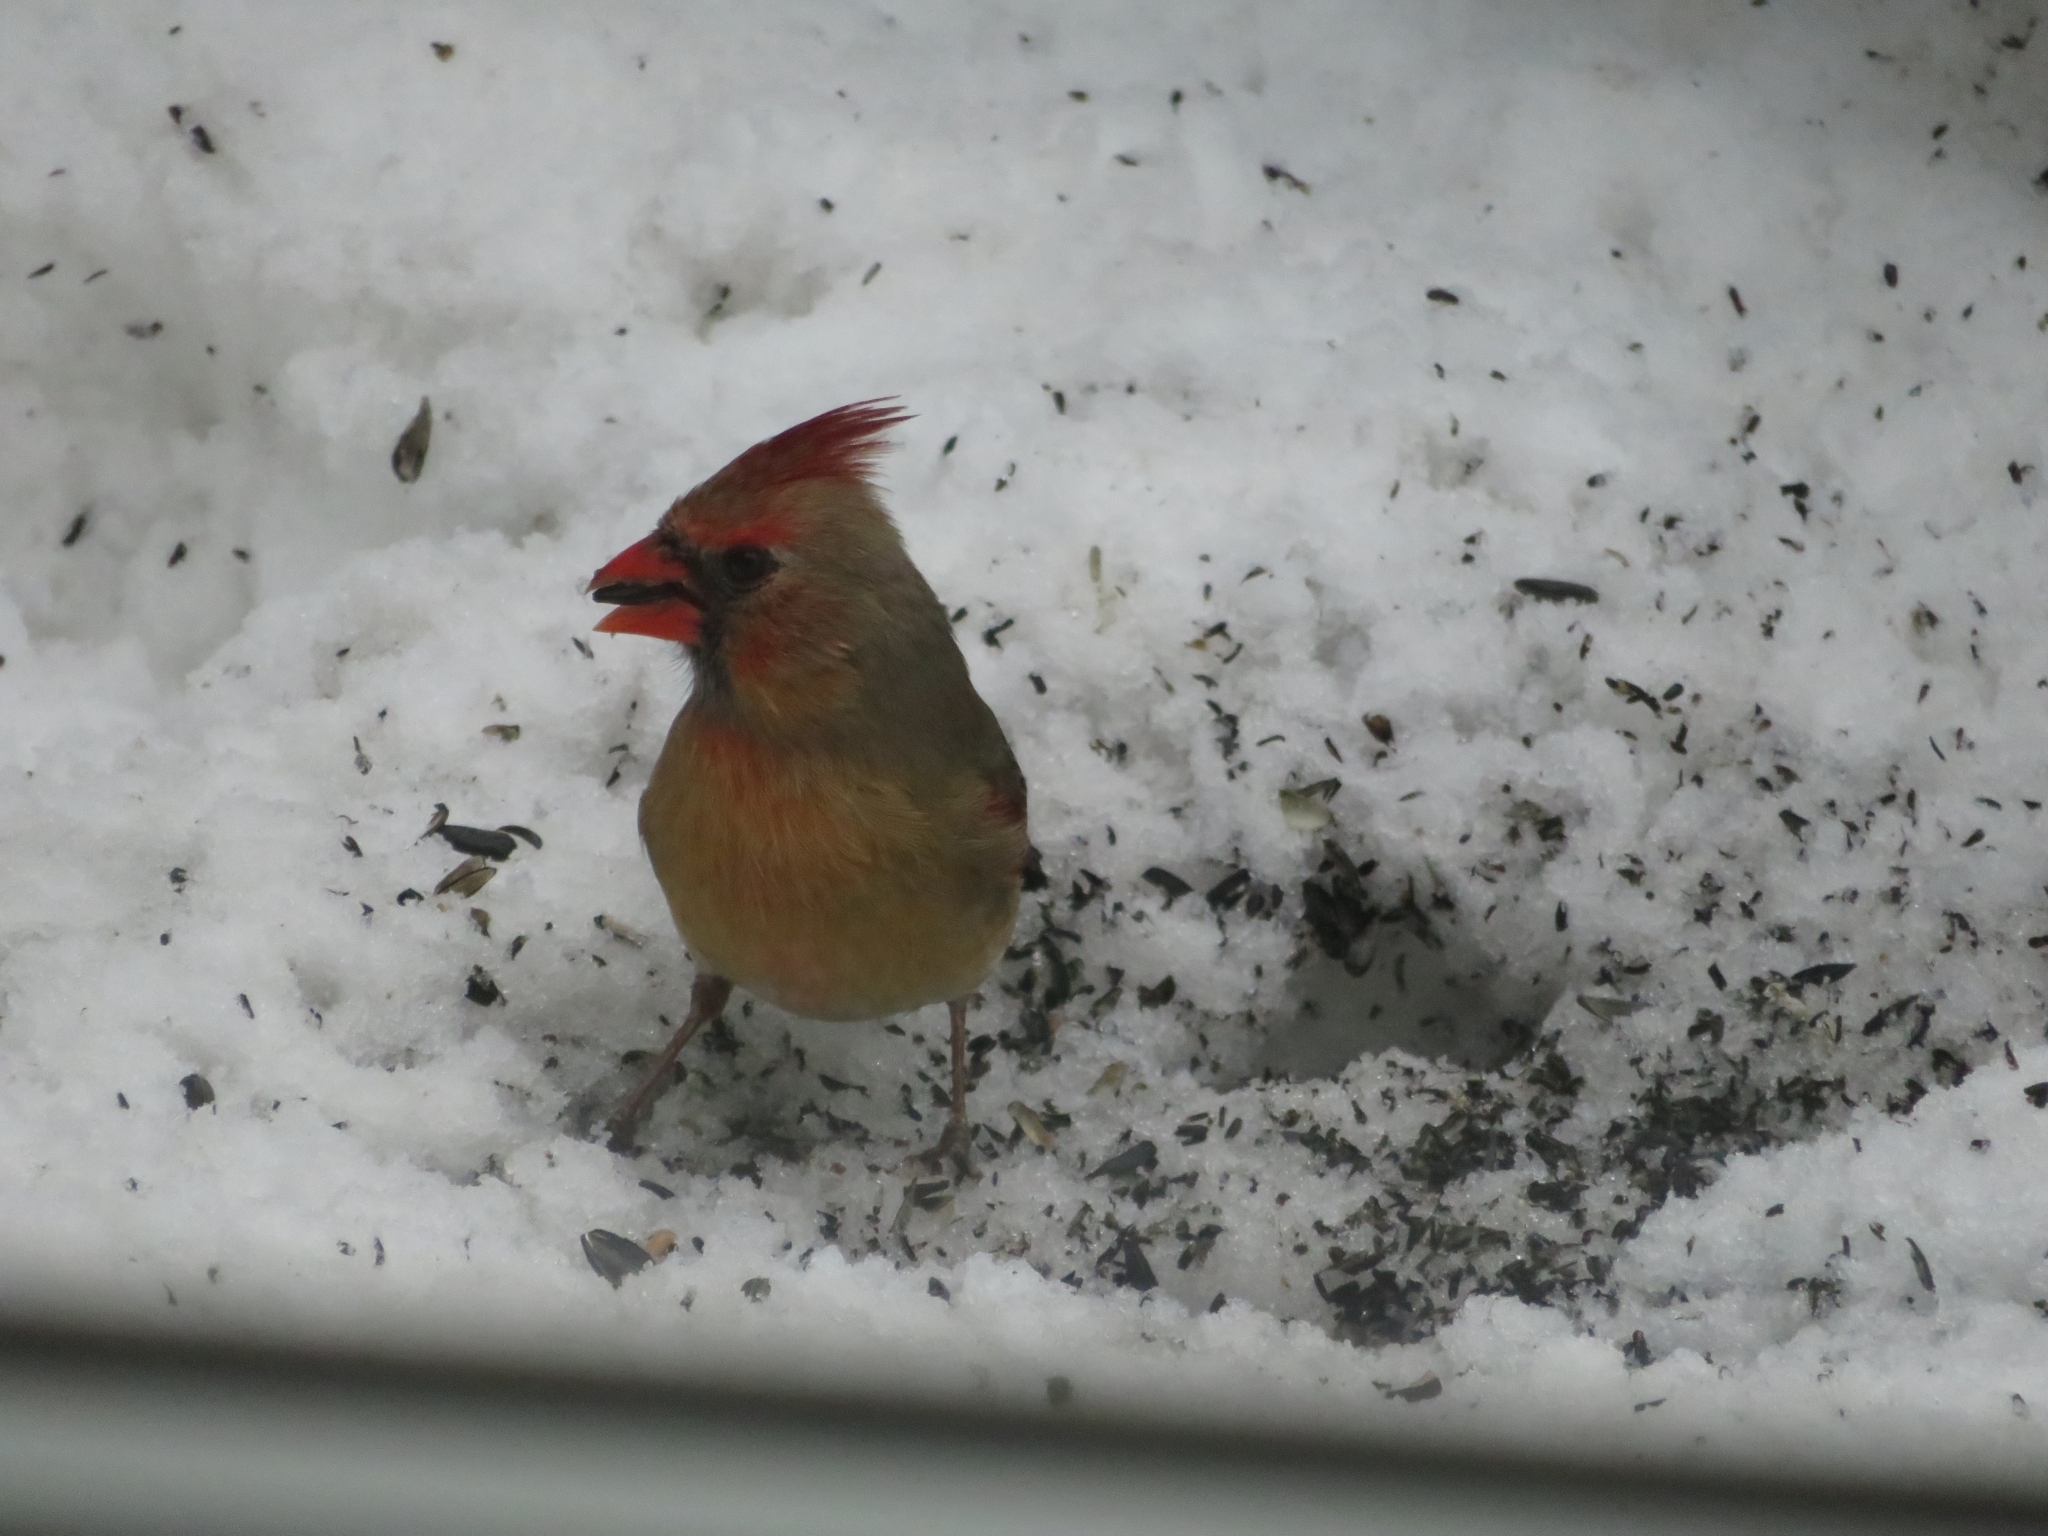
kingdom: Animalia
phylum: Chordata
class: Aves
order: Passeriformes
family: Cardinalidae
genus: Cardinalis
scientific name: Cardinalis cardinalis
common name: Northern cardinal
